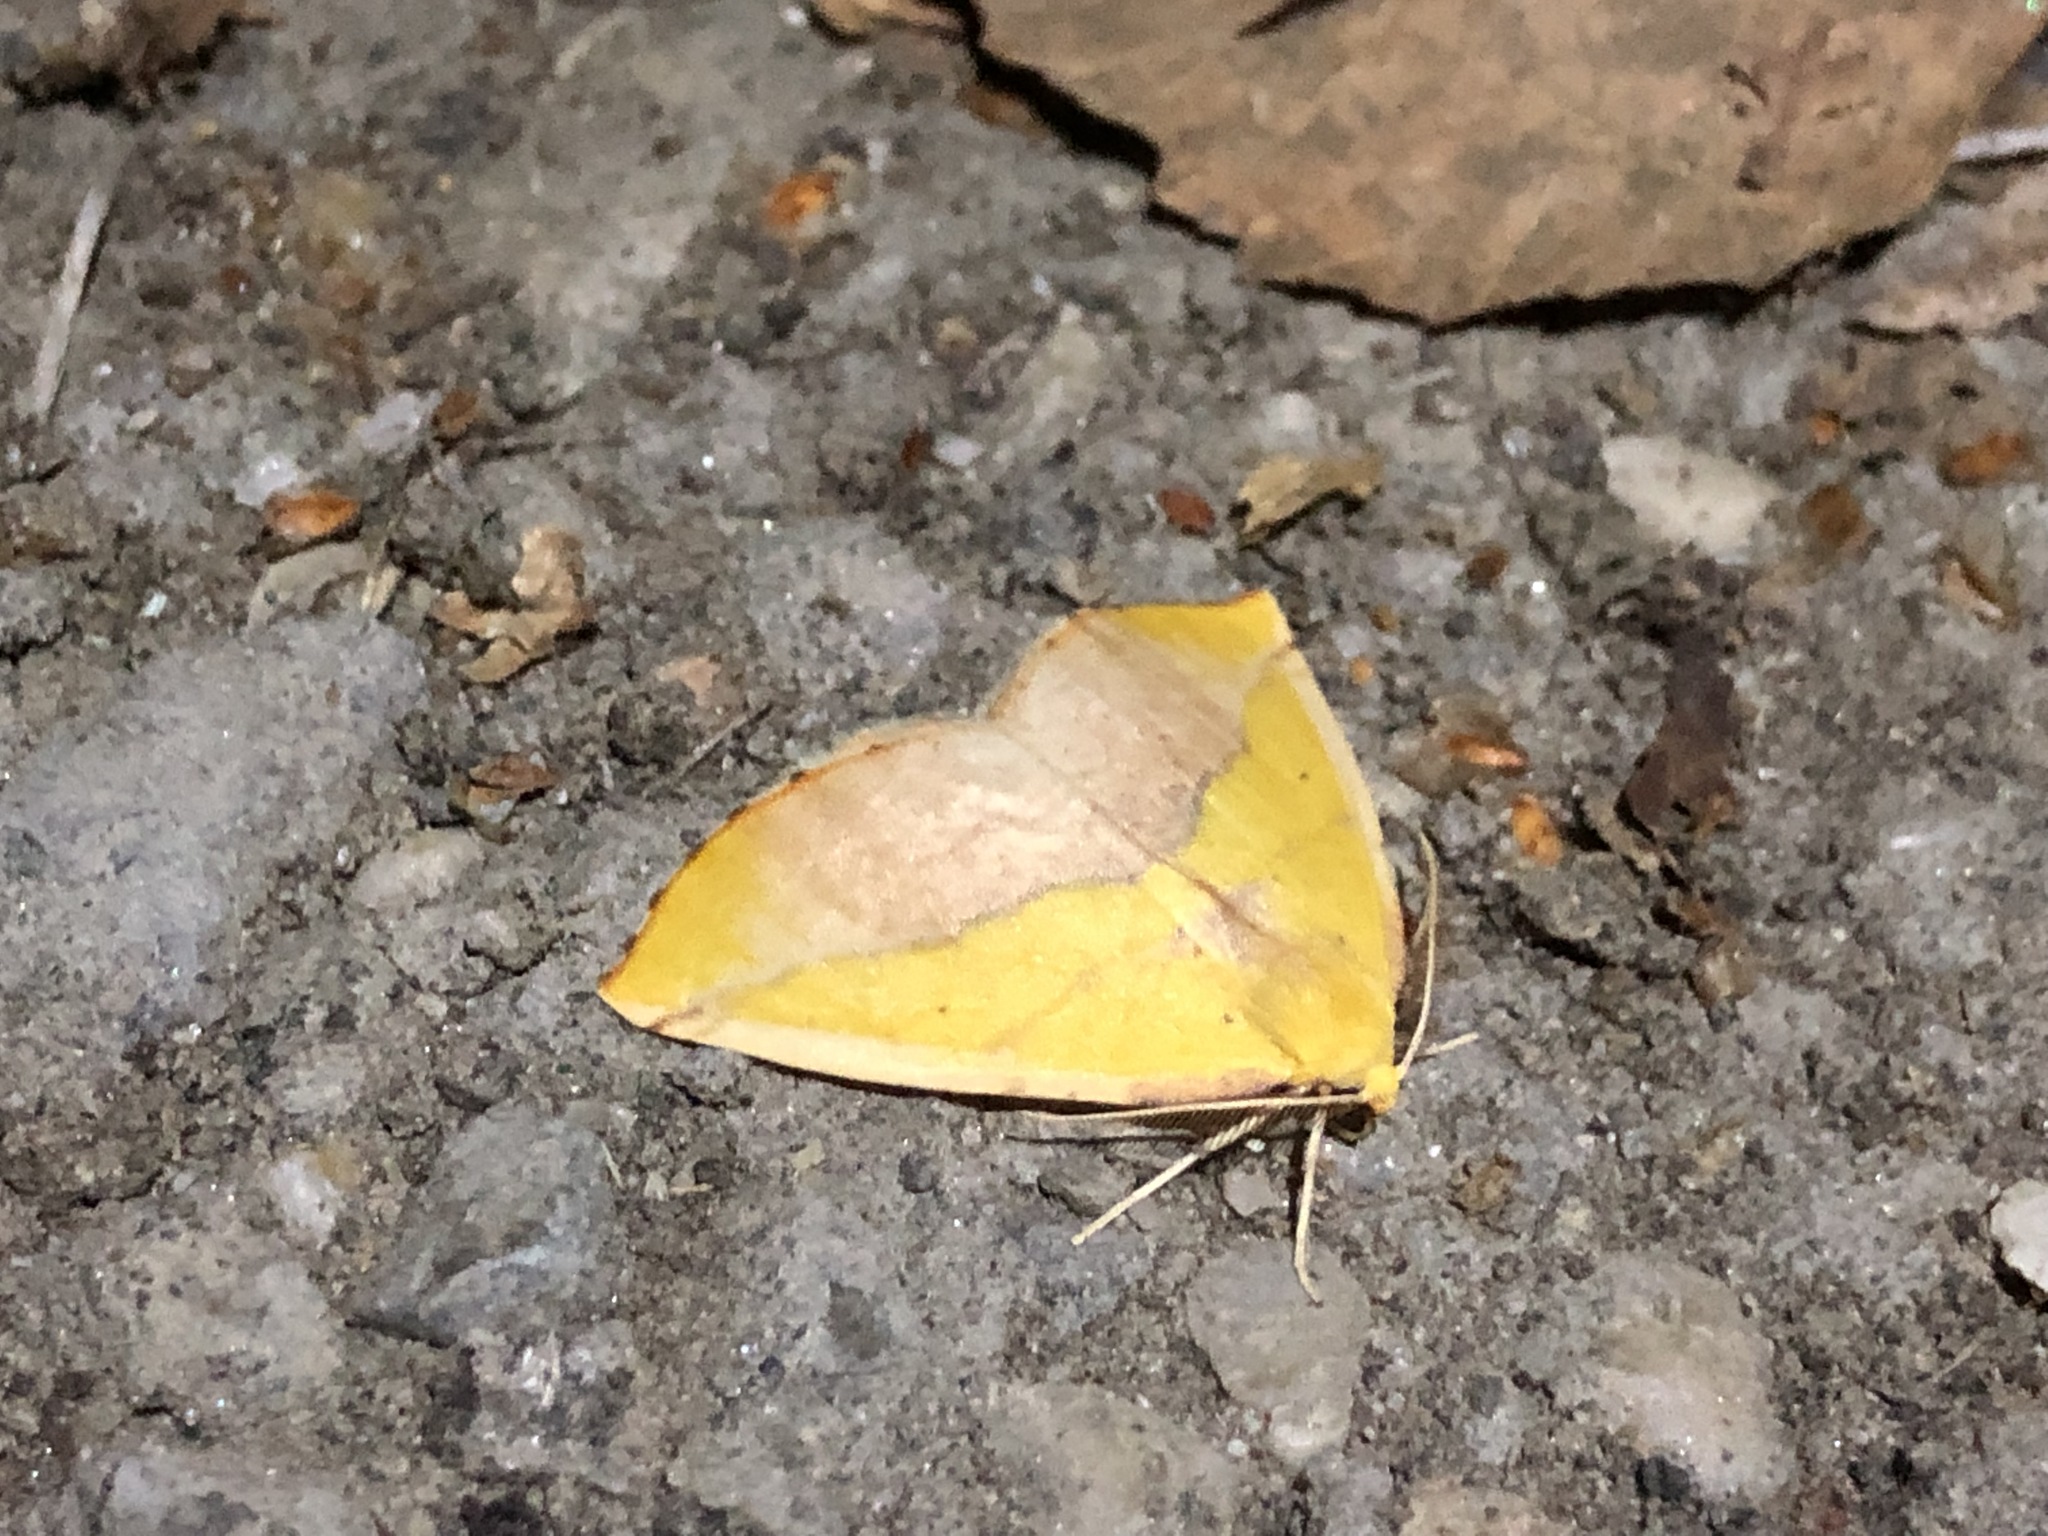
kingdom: Animalia
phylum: Arthropoda
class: Insecta
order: Lepidoptera
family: Geometridae
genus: Sicya
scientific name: Sicya macularia
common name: Sharp-lined yellow
